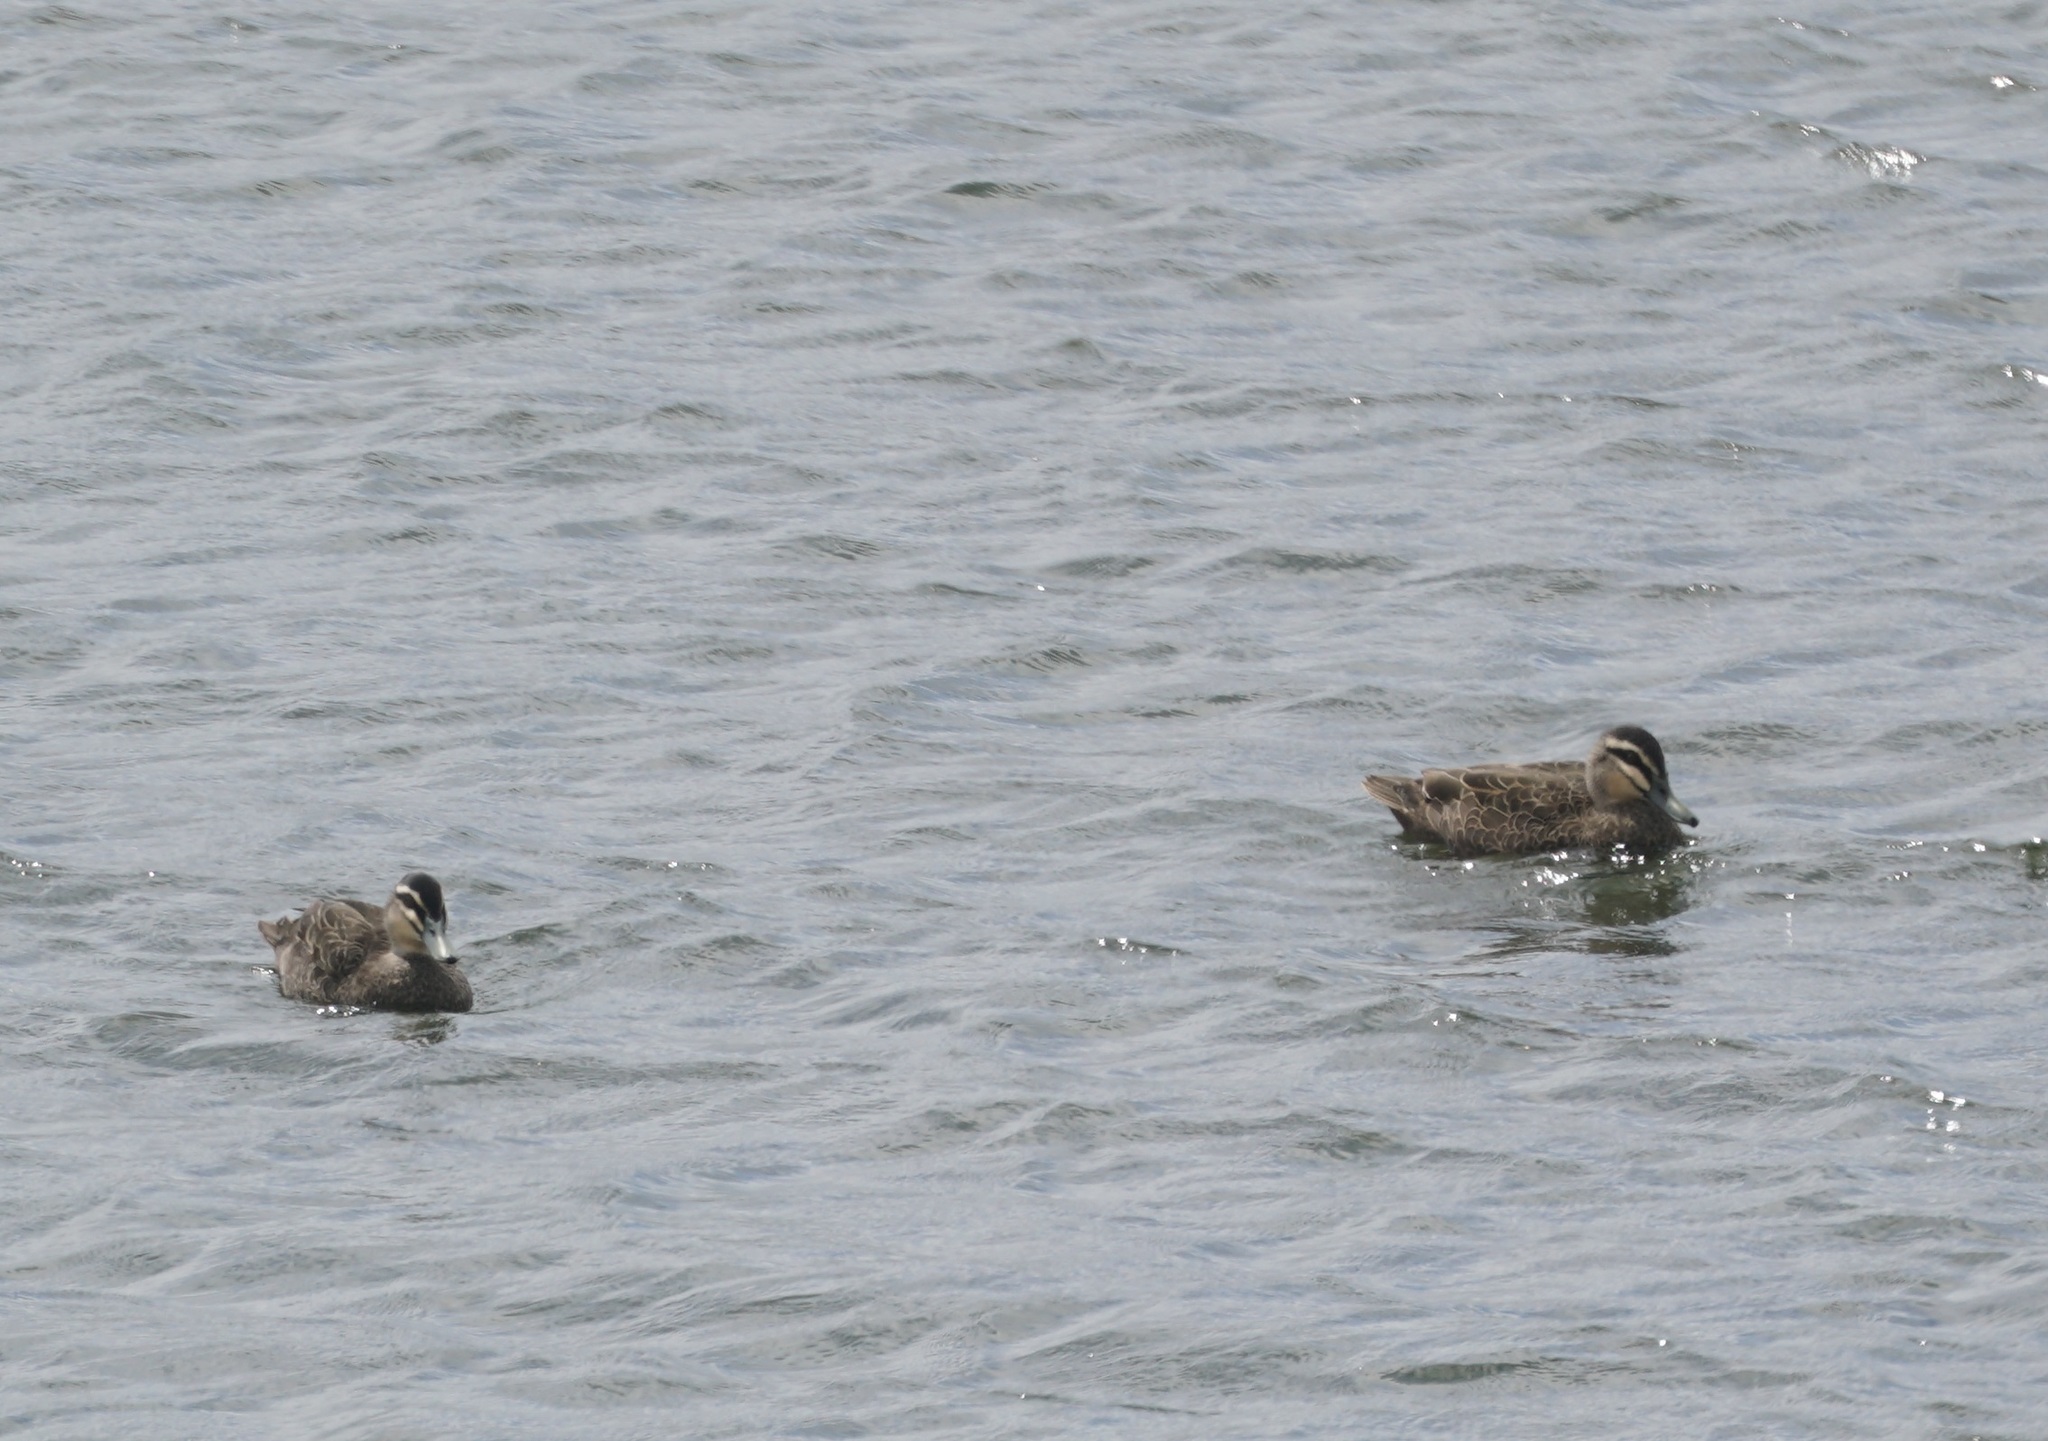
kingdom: Animalia
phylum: Chordata
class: Aves
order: Anseriformes
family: Anatidae
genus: Anas
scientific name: Anas superciliosa
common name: Pacific black duck
